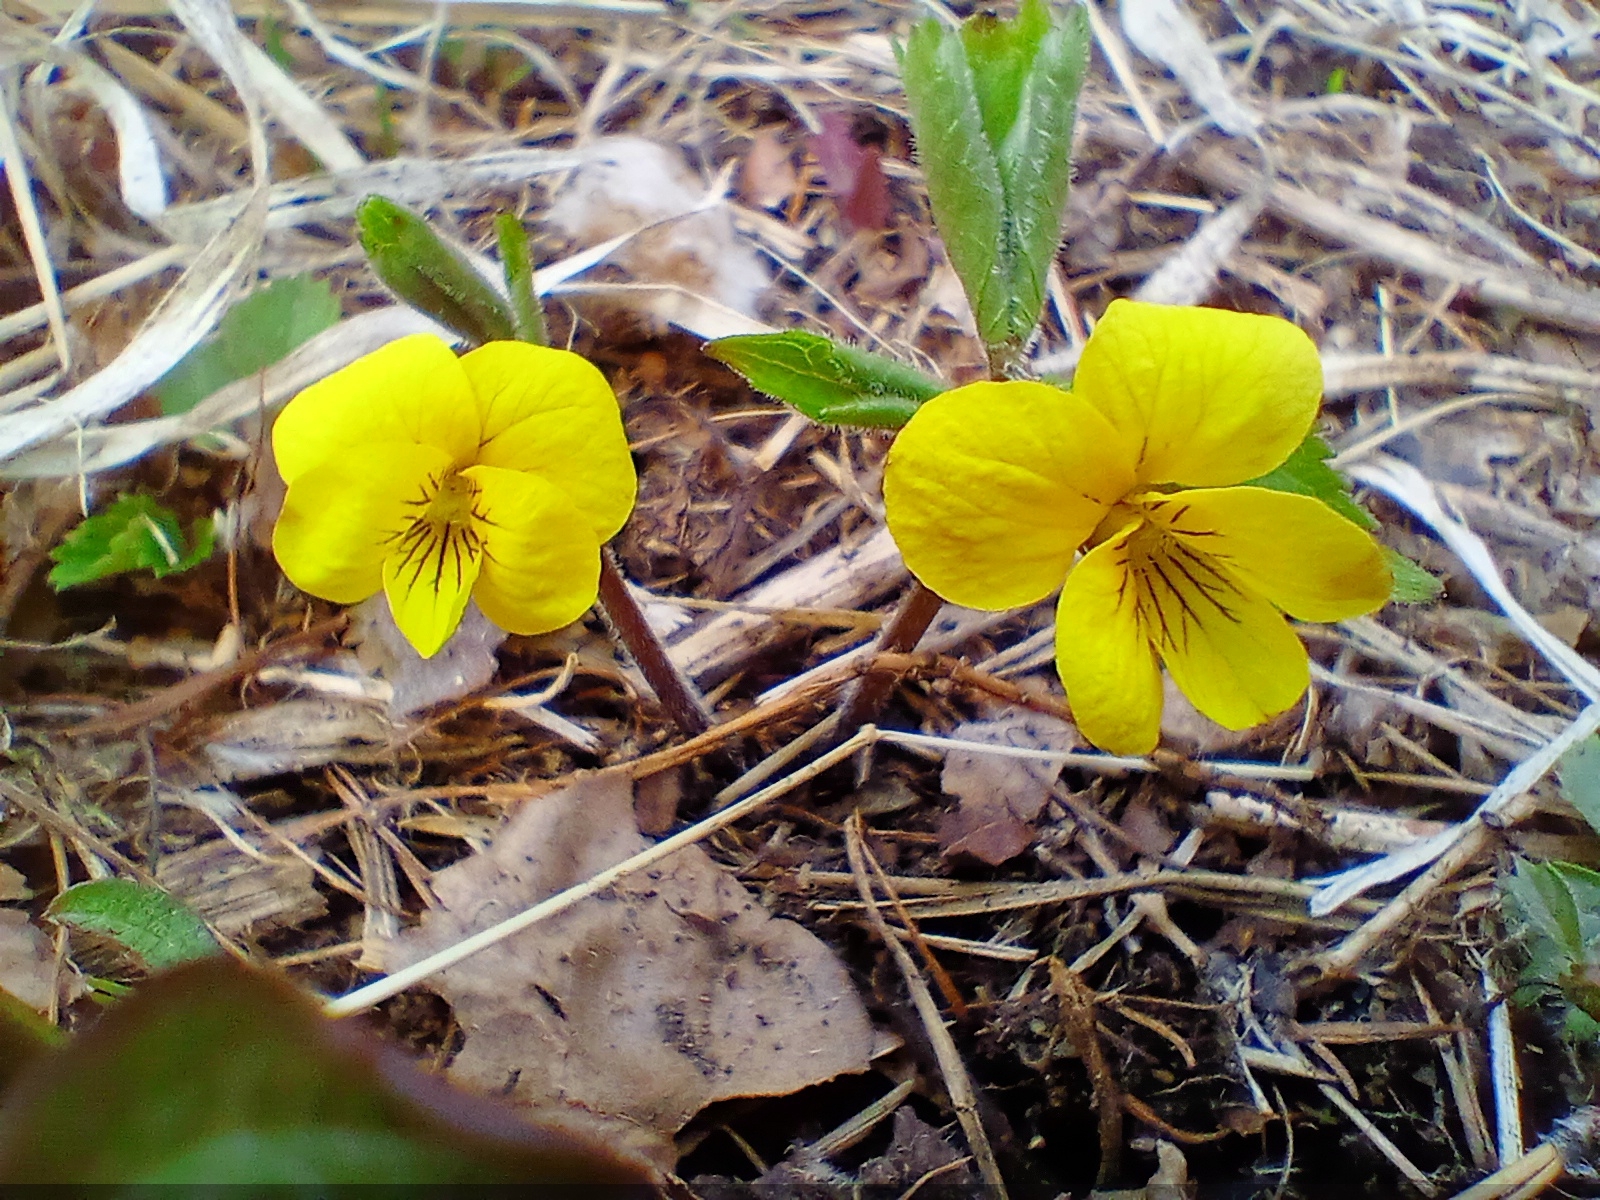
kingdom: Plantae
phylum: Tracheophyta
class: Magnoliopsida
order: Malpighiales
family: Violaceae
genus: Viola
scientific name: Viola uniflora
